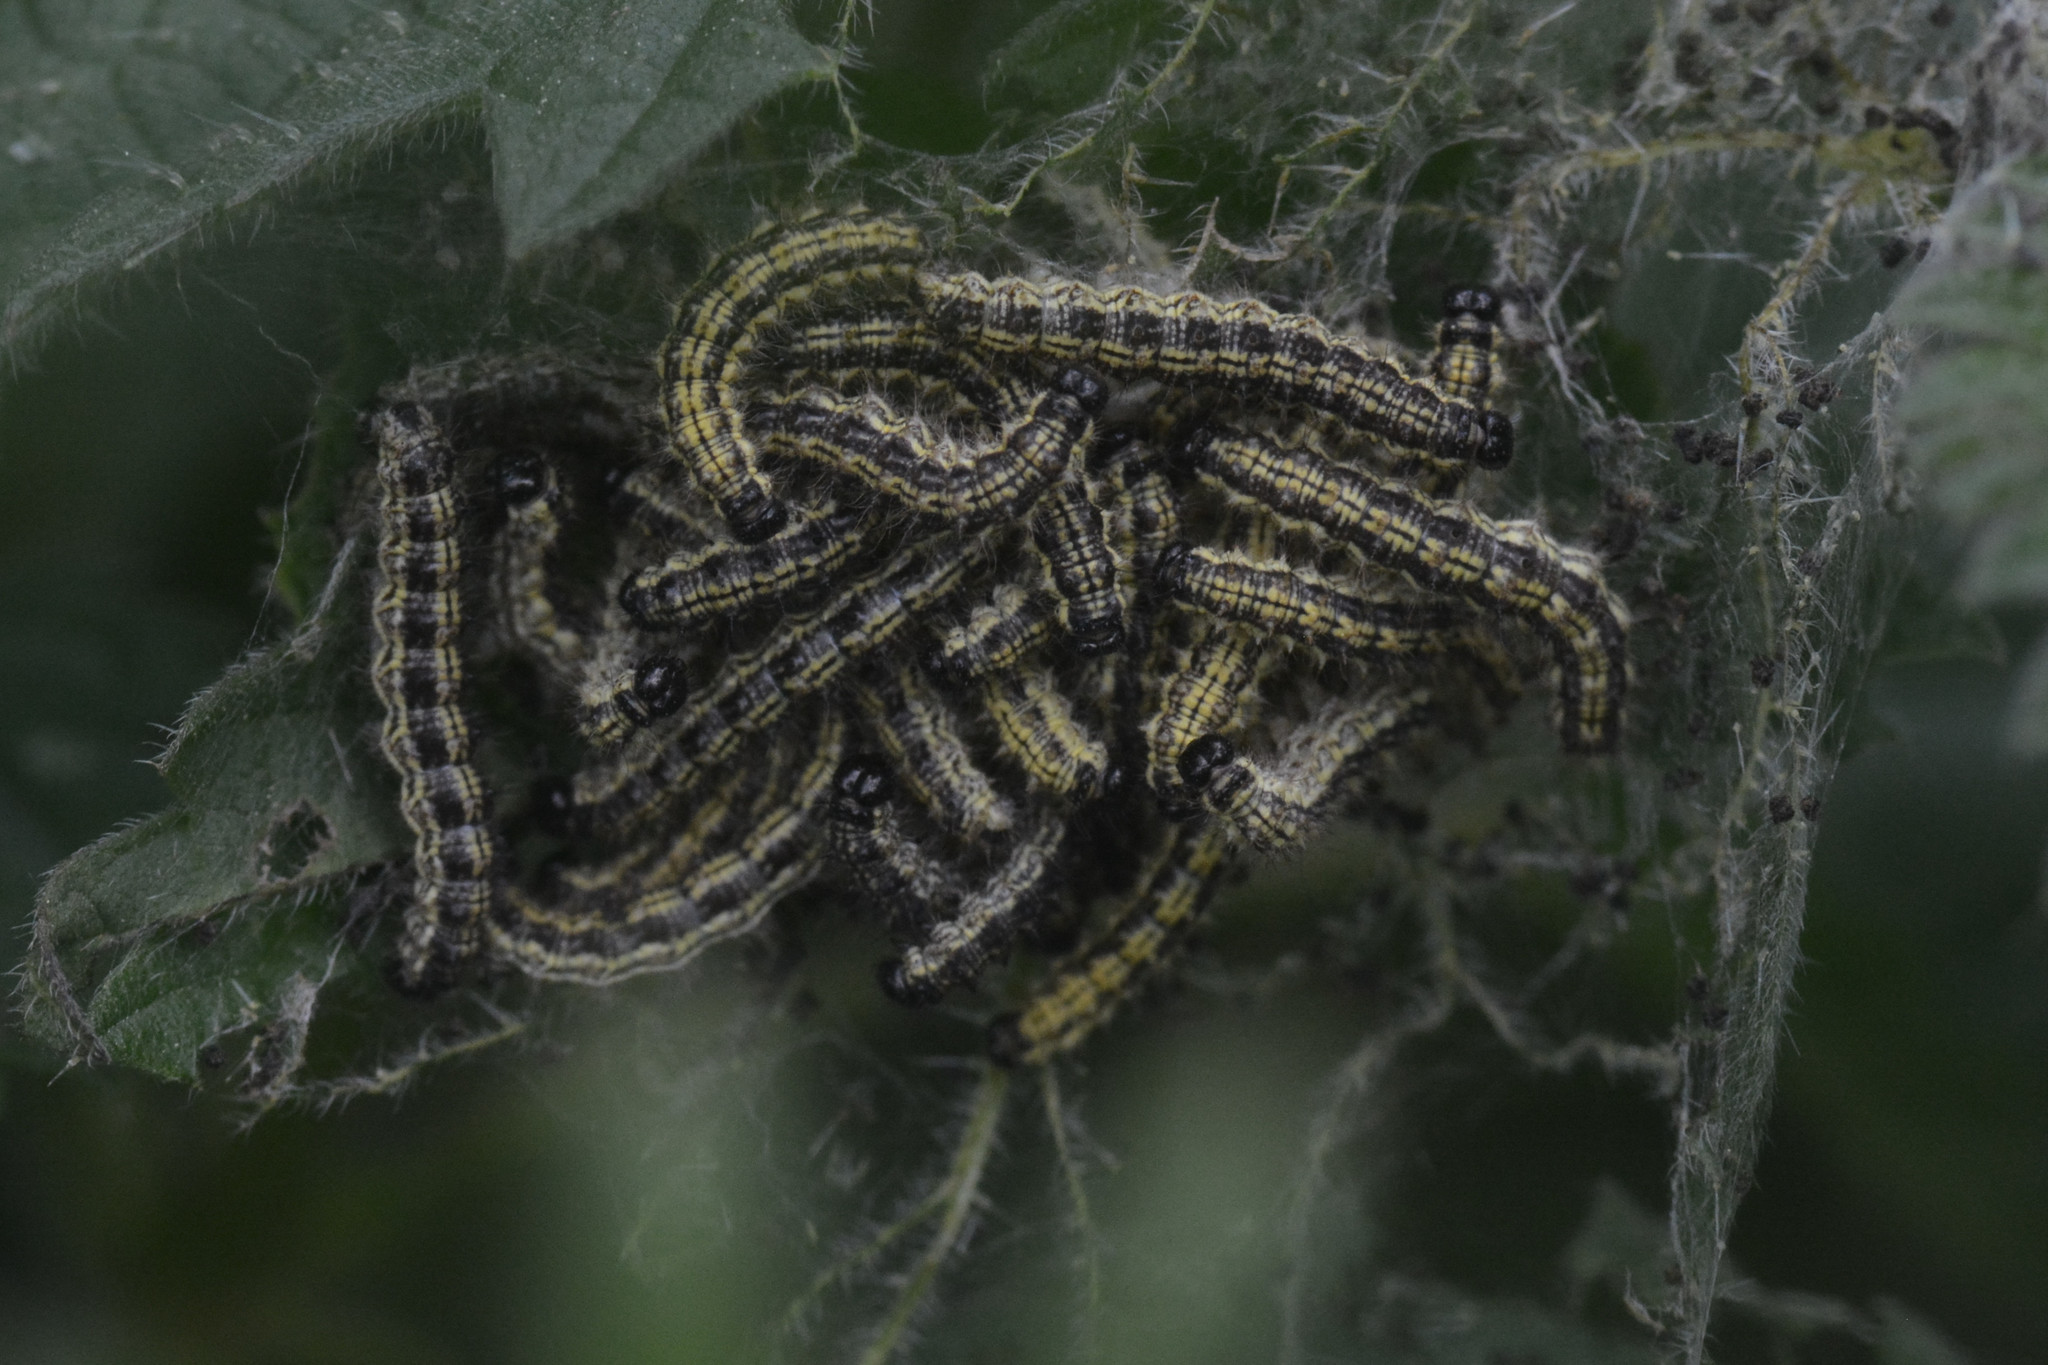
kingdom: Animalia
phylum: Arthropoda
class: Insecta
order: Lepidoptera
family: Nymphalidae
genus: Aglais
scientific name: Aglais urticae
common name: Small tortoiseshell
